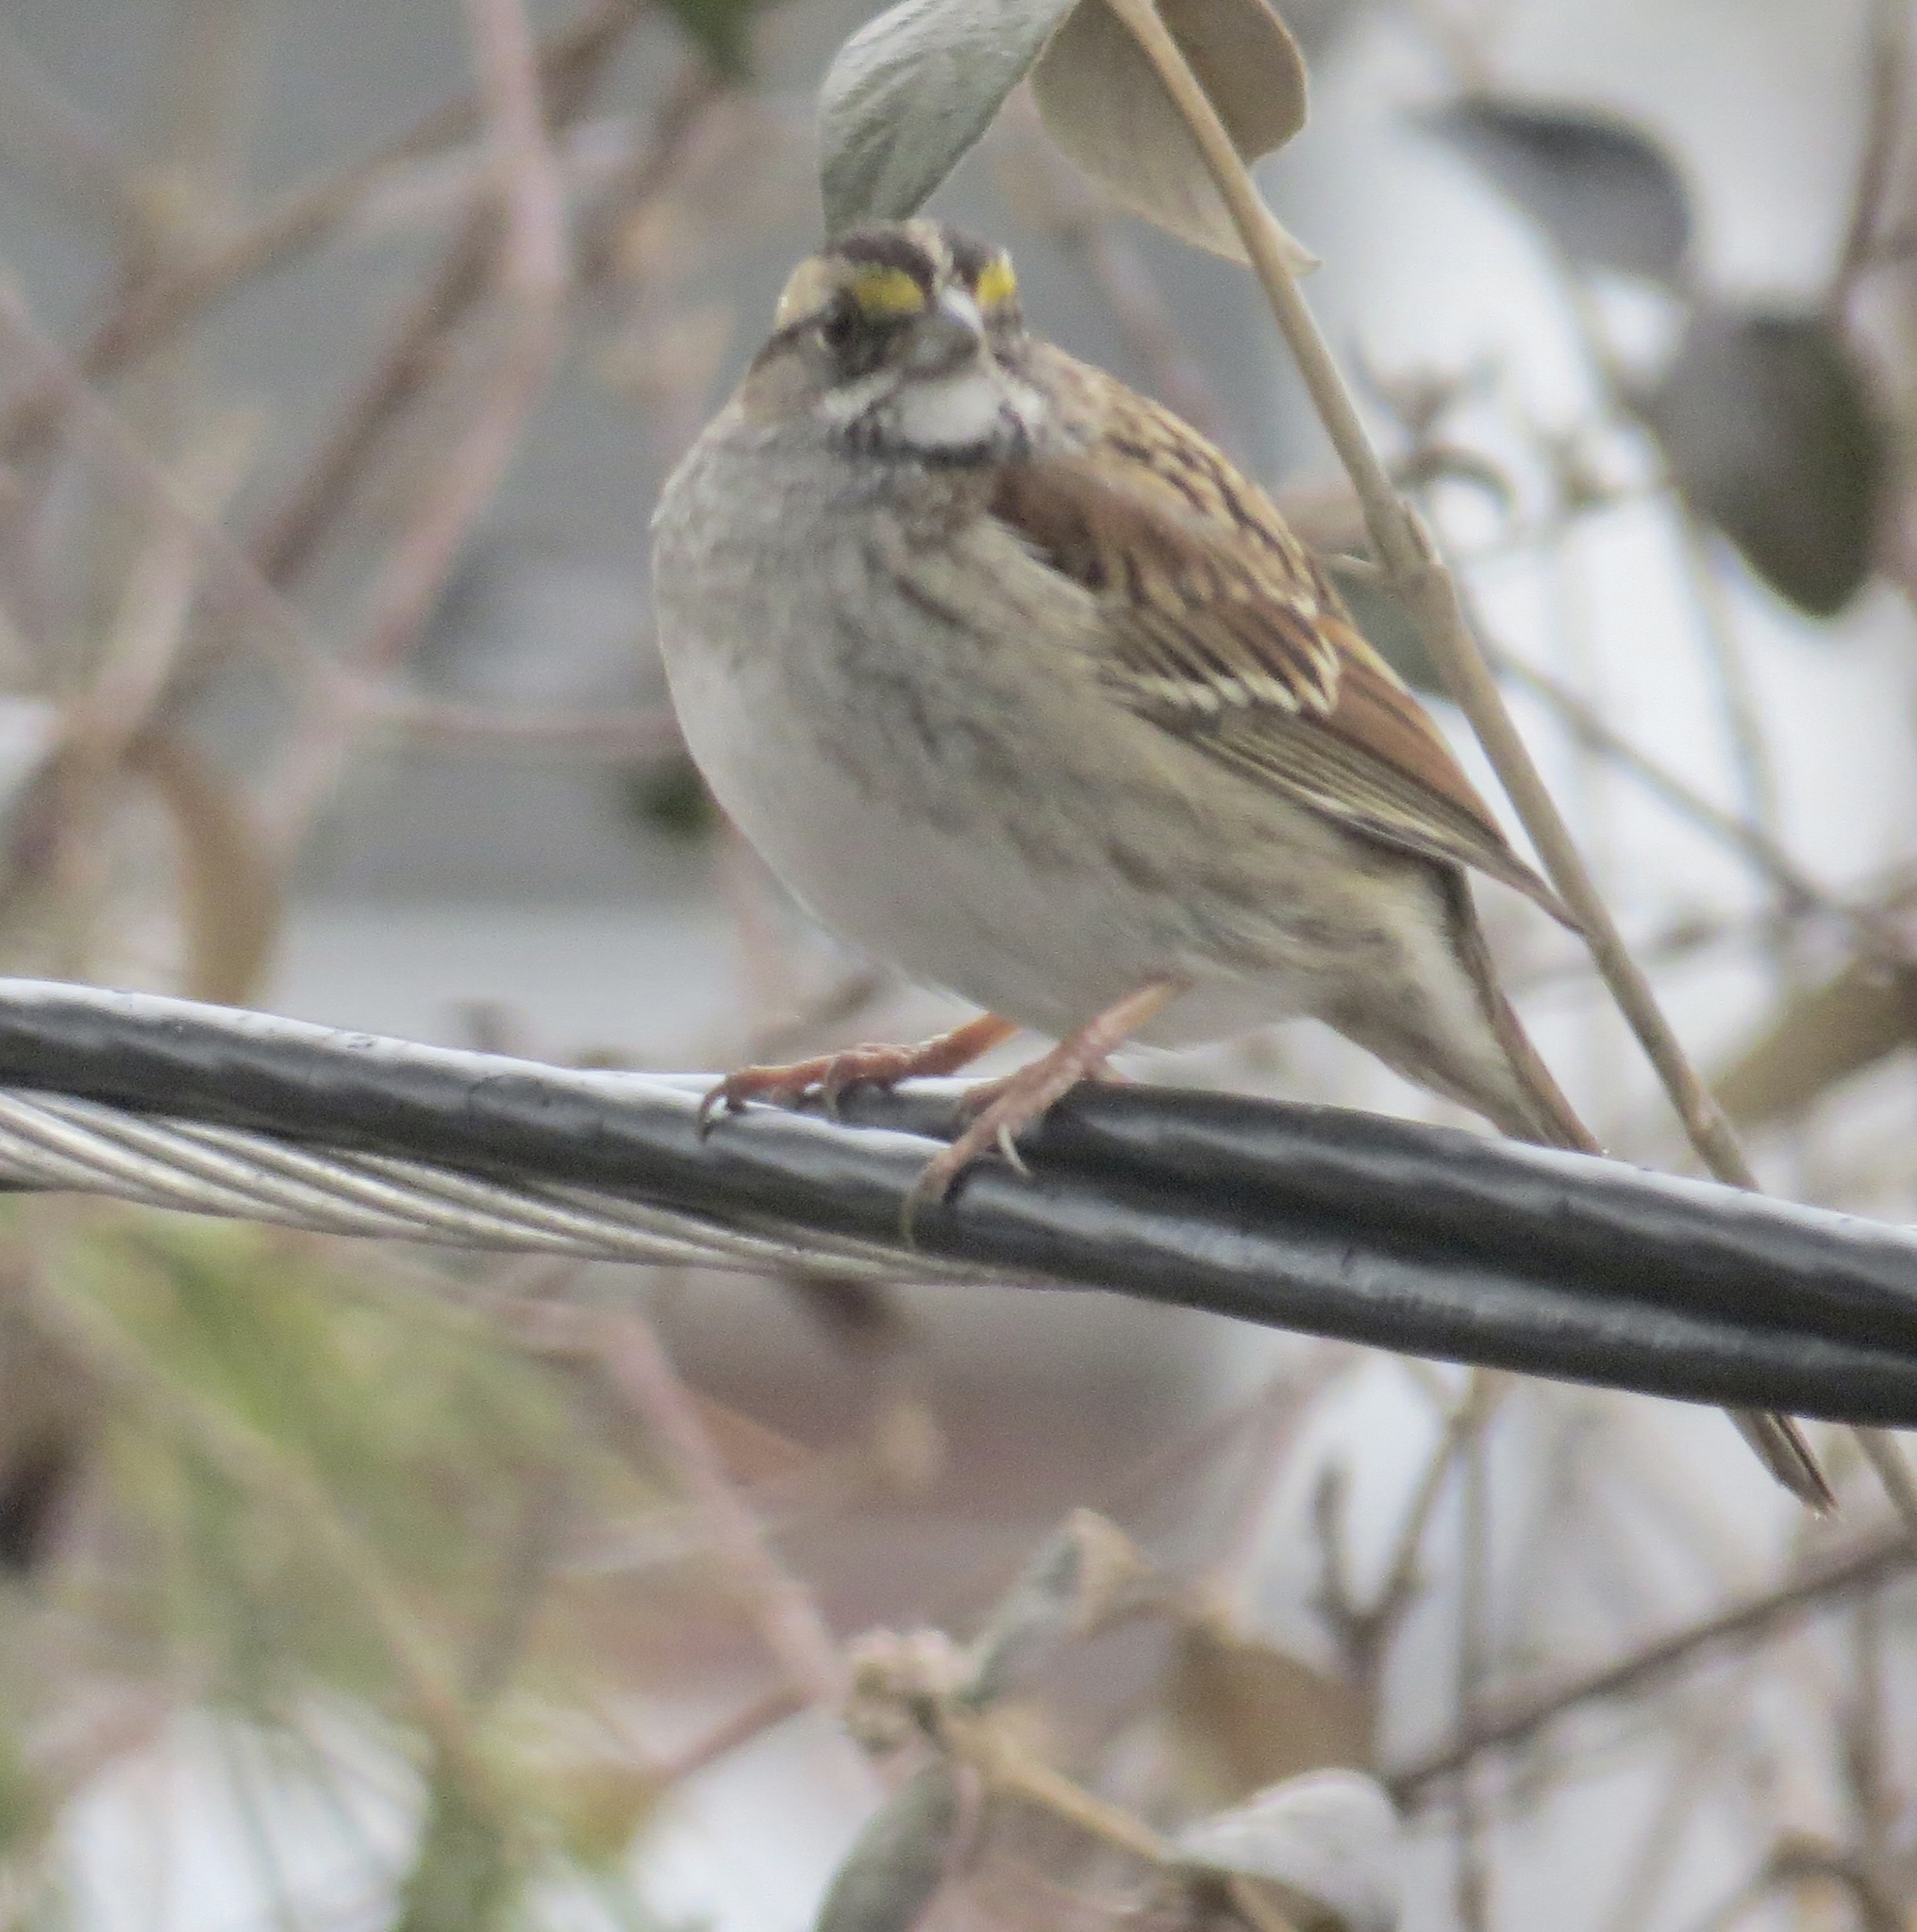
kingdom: Animalia
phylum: Chordata
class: Aves
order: Passeriformes
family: Passerellidae
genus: Zonotrichia
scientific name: Zonotrichia albicollis
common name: White-throated sparrow
